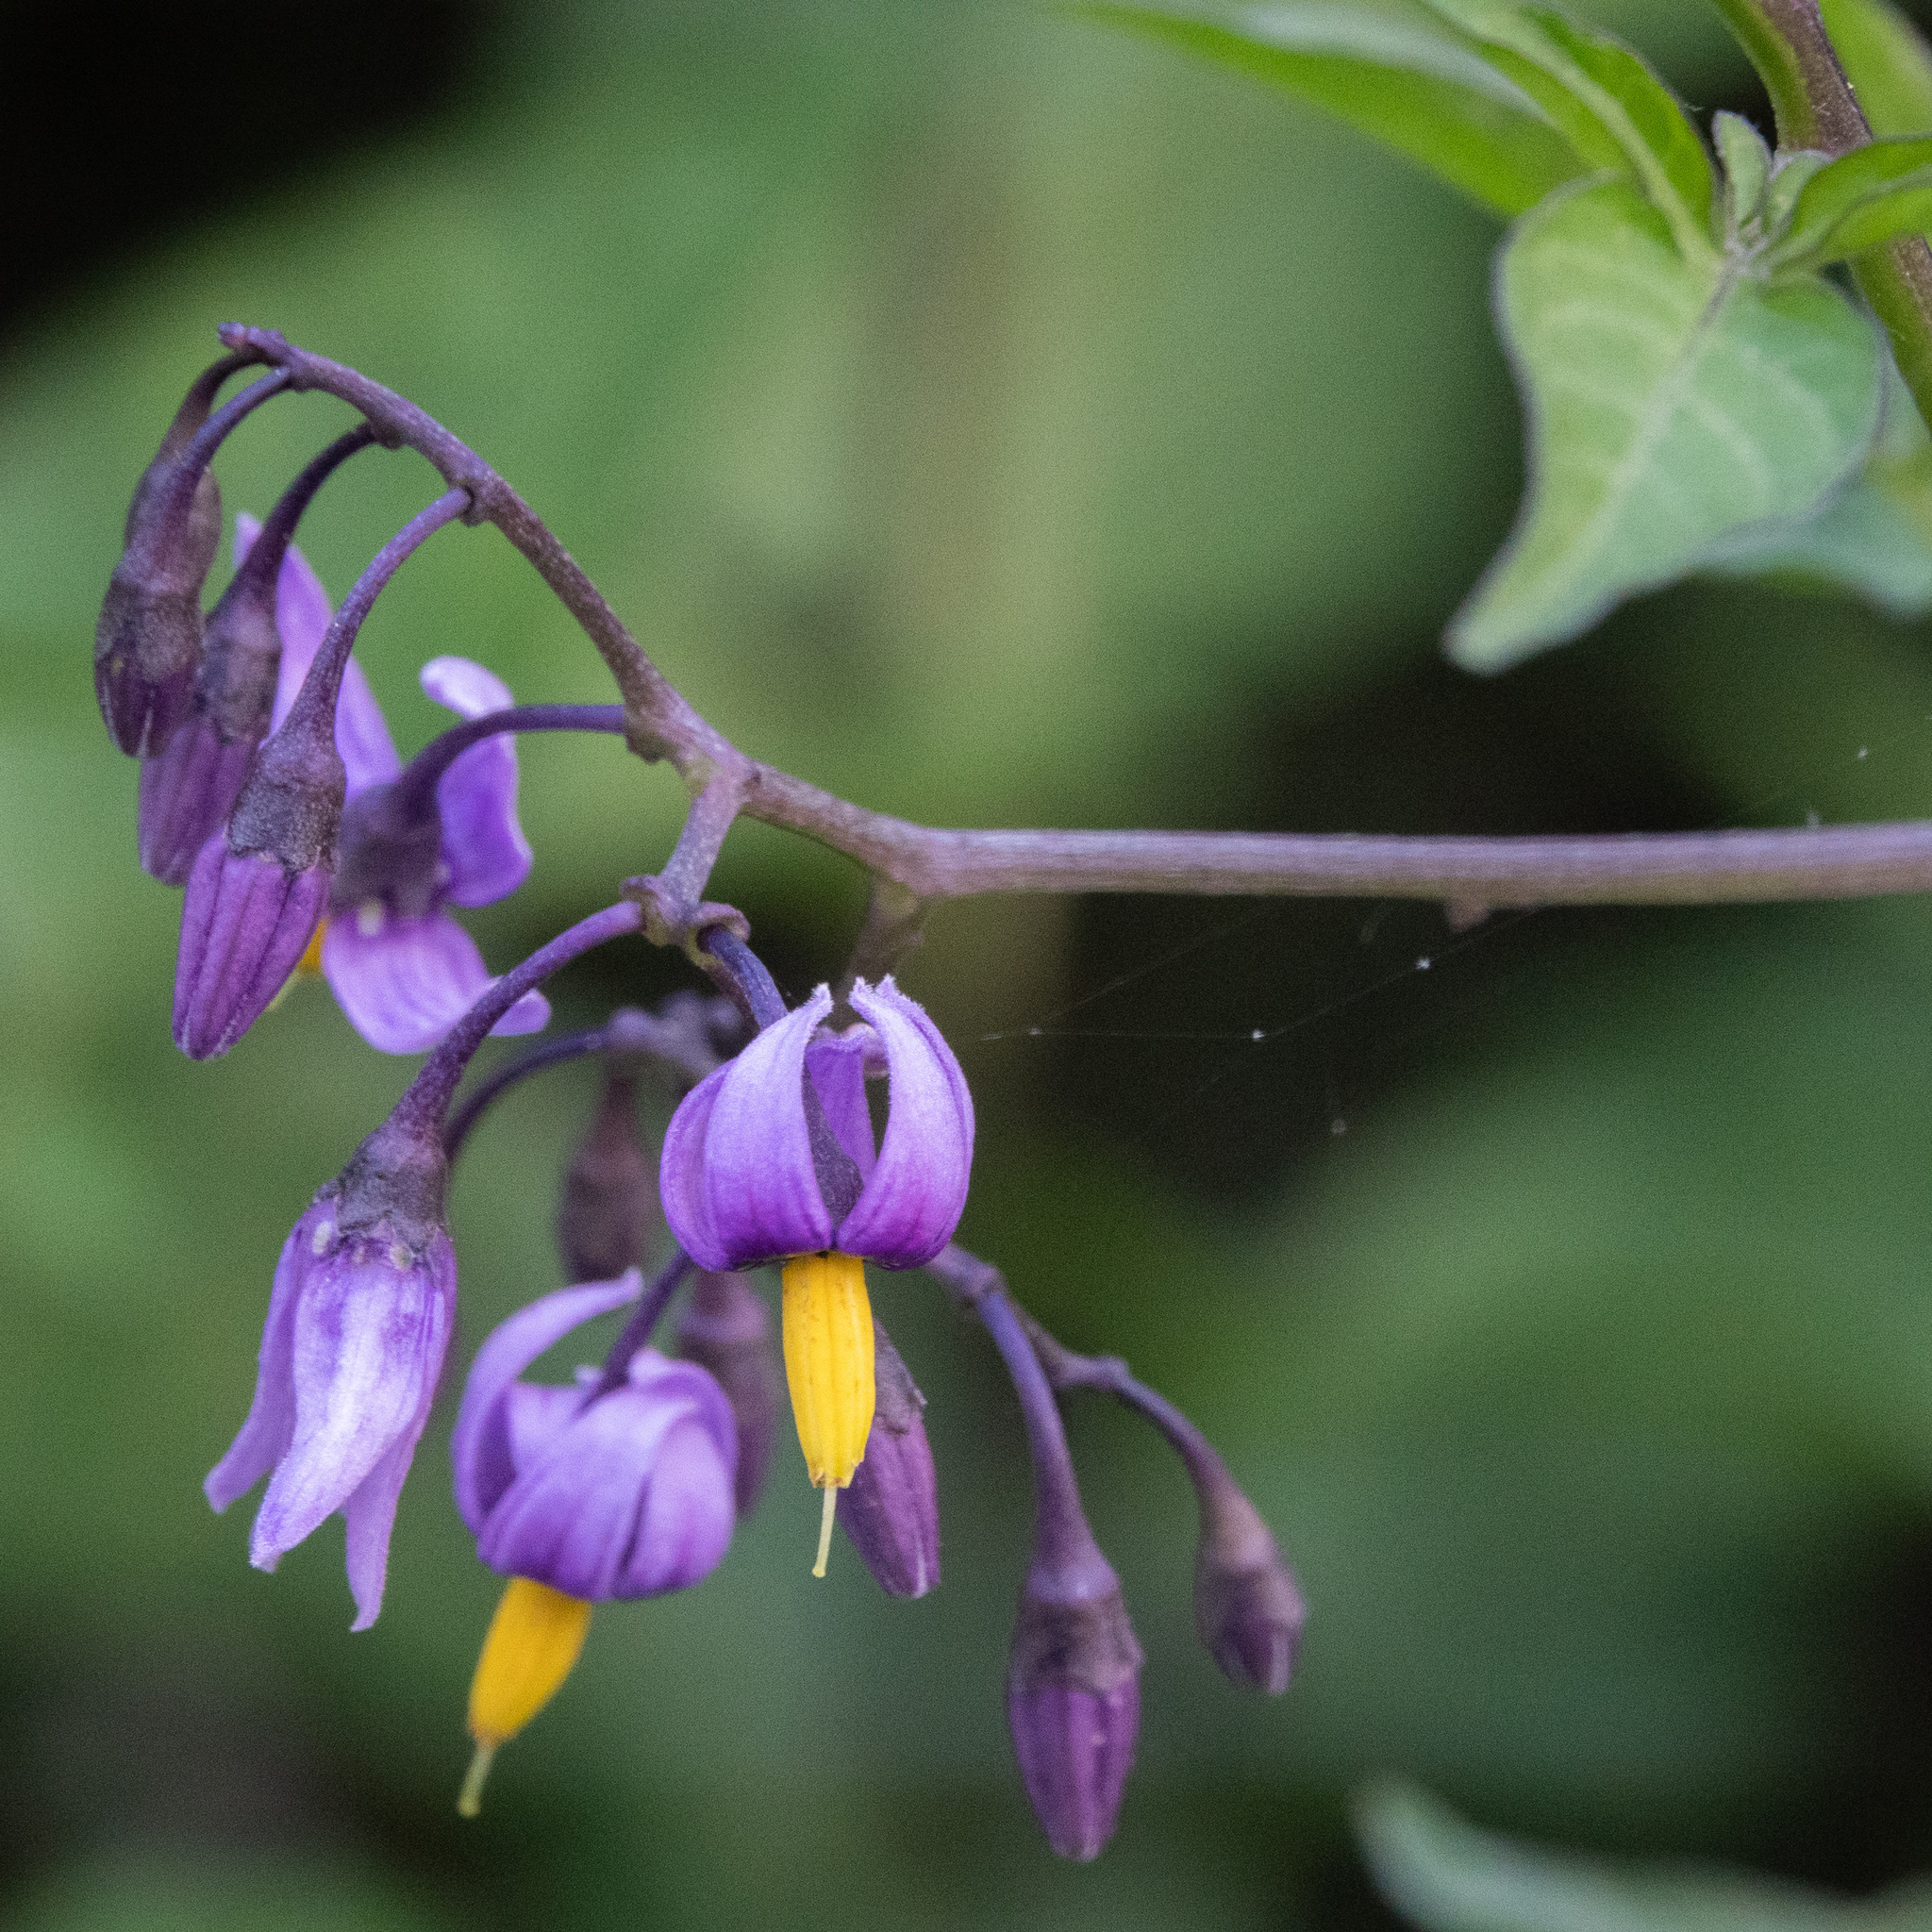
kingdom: Plantae
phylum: Tracheophyta
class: Magnoliopsida
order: Solanales
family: Solanaceae
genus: Solanum
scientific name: Solanum dulcamara
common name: Climbing nightshade
